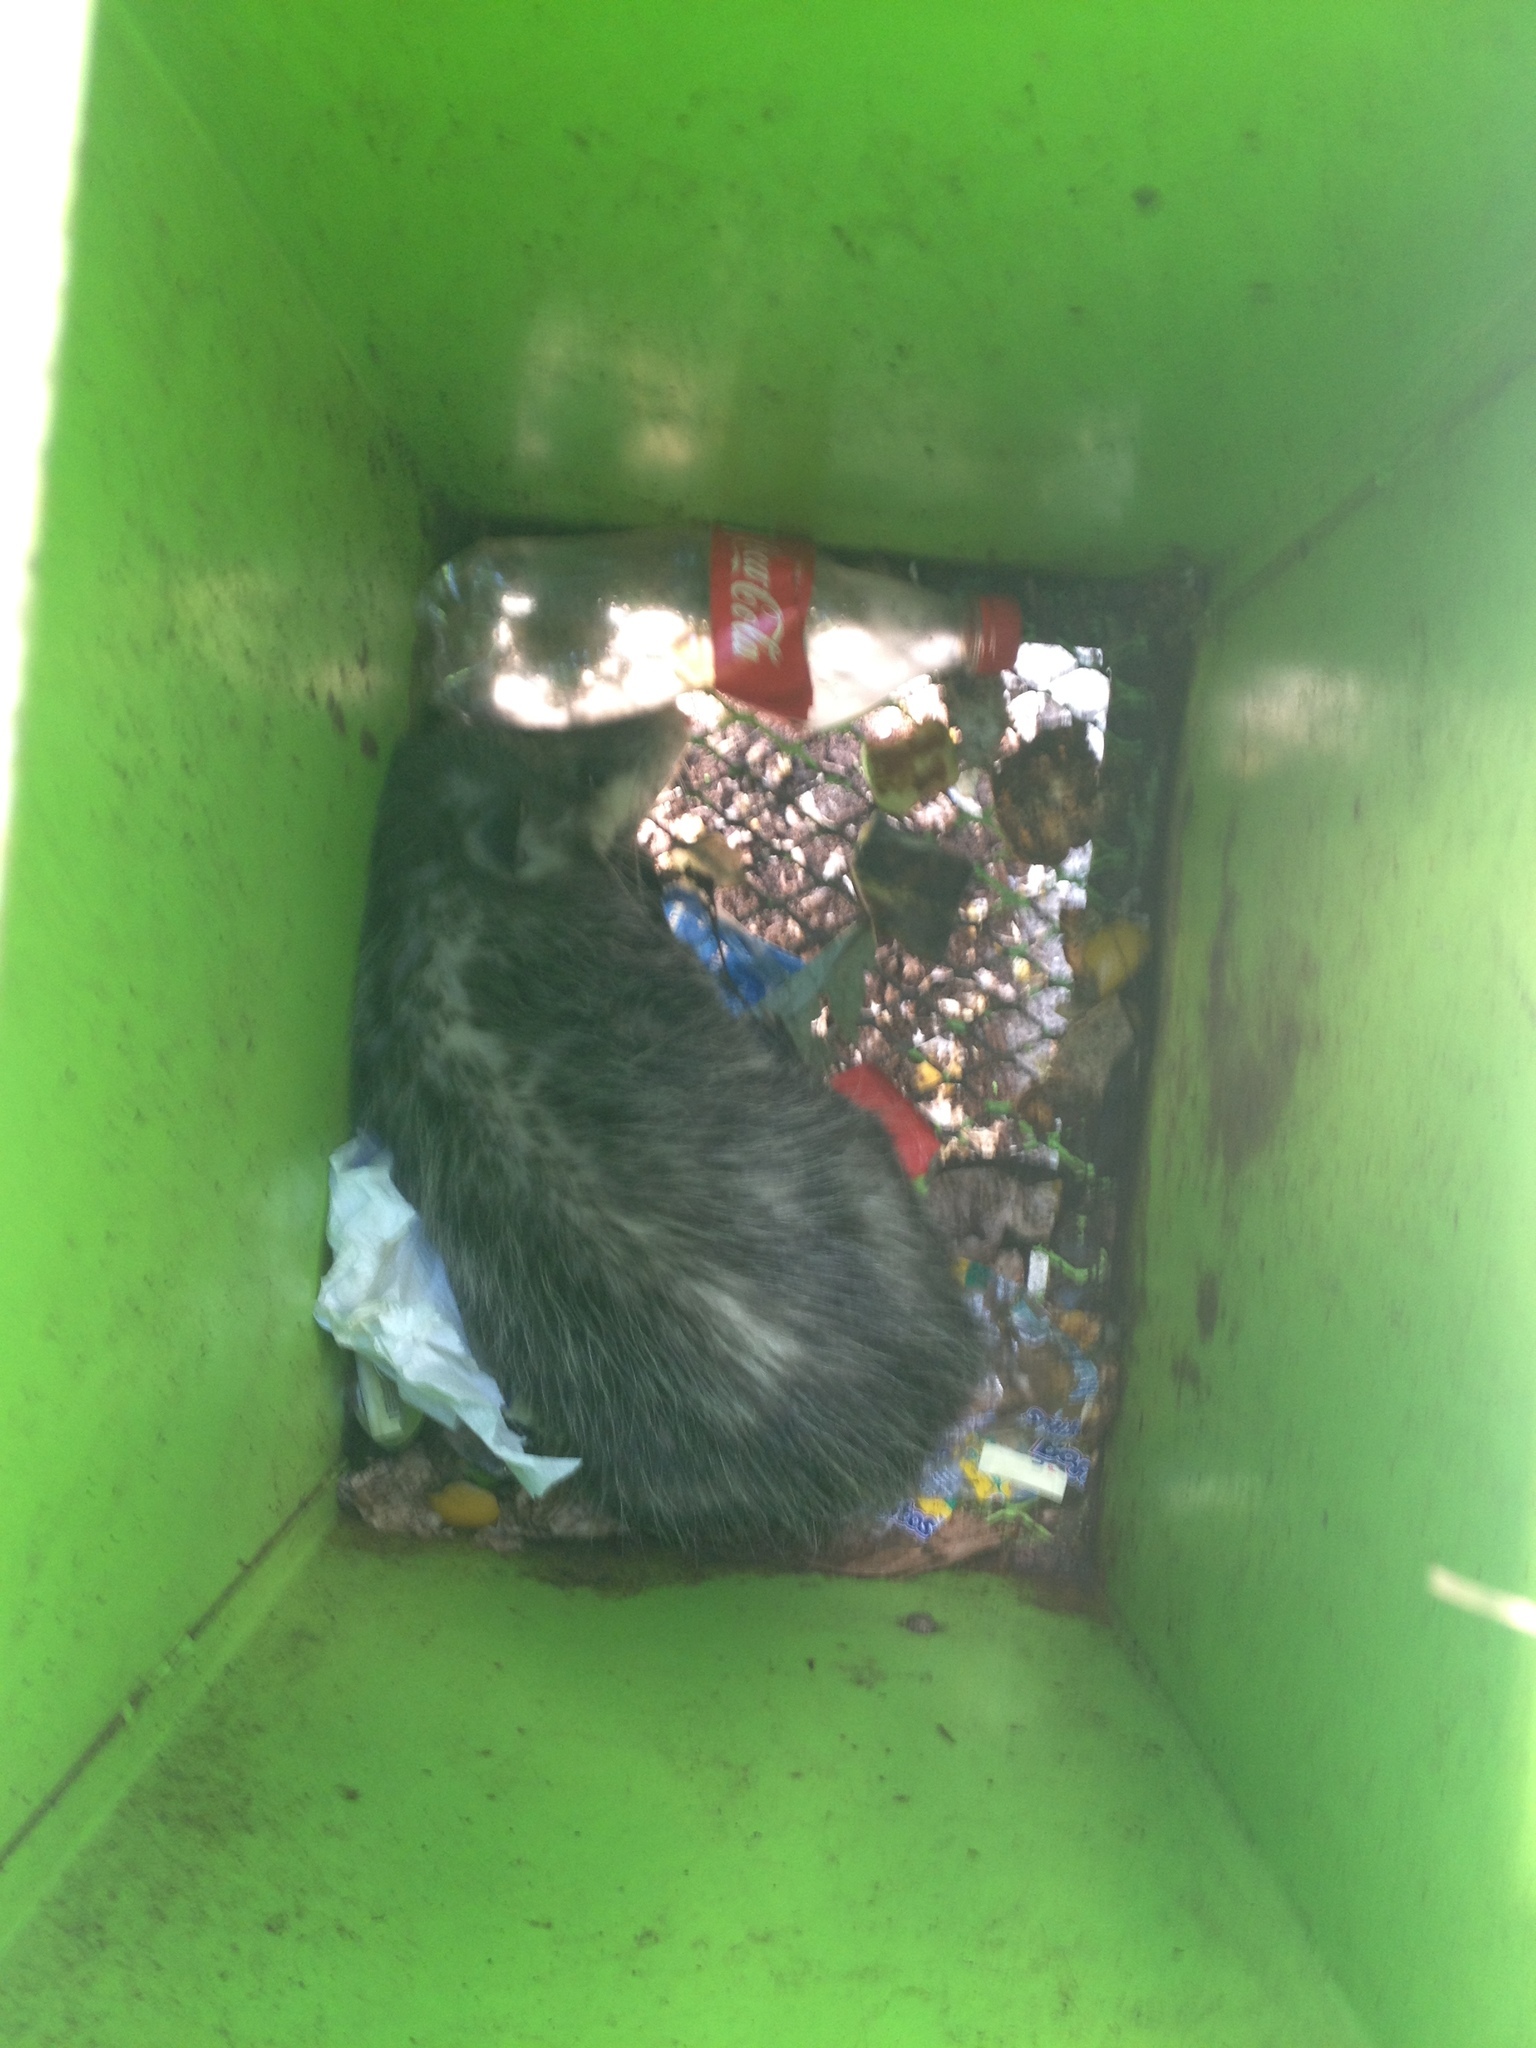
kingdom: Animalia
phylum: Chordata
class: Mammalia
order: Didelphimorphia
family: Didelphidae
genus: Didelphis
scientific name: Didelphis virginiana
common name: Virginia opossum
